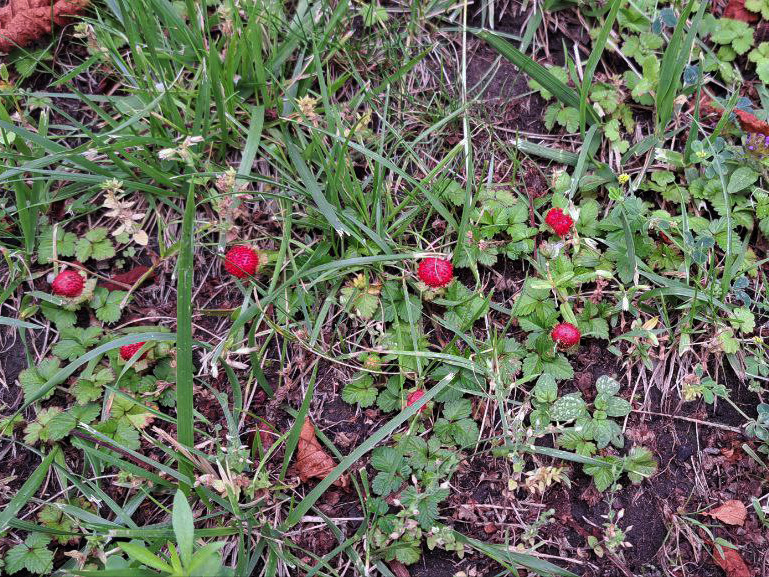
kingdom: Plantae
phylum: Tracheophyta
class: Magnoliopsida
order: Rosales
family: Rosaceae
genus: Potentilla
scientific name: Potentilla indica
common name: Yellow-flowered strawberry
